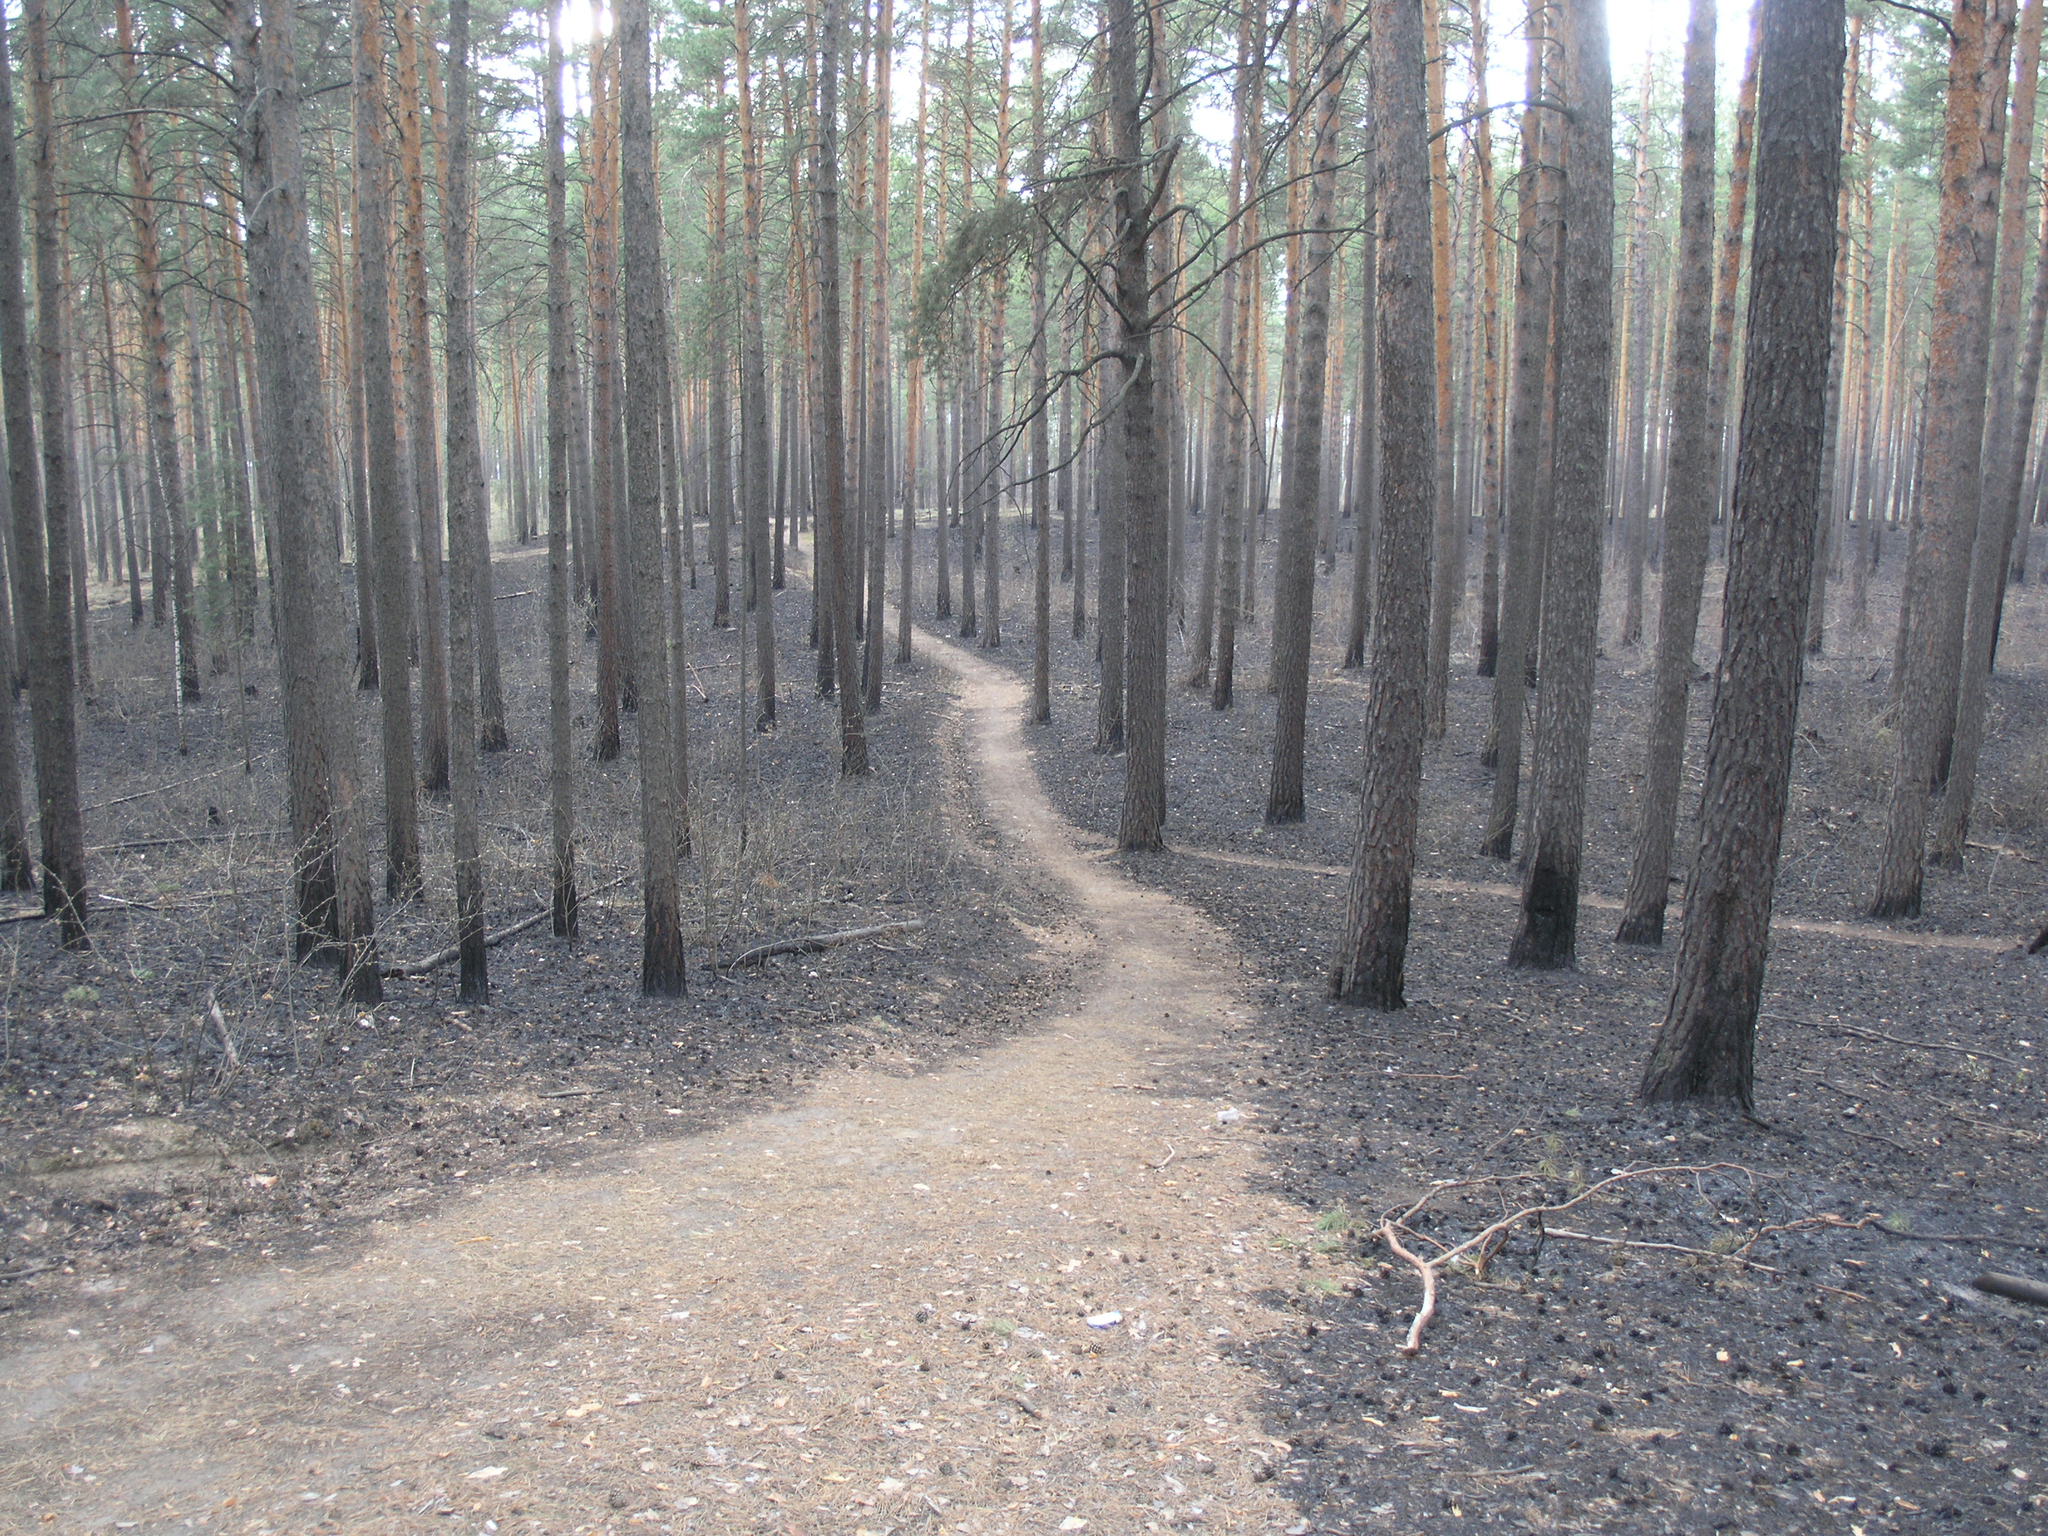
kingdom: Plantae
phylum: Tracheophyta
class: Pinopsida
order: Pinales
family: Pinaceae
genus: Pinus
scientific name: Pinus sylvestris
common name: Scots pine
